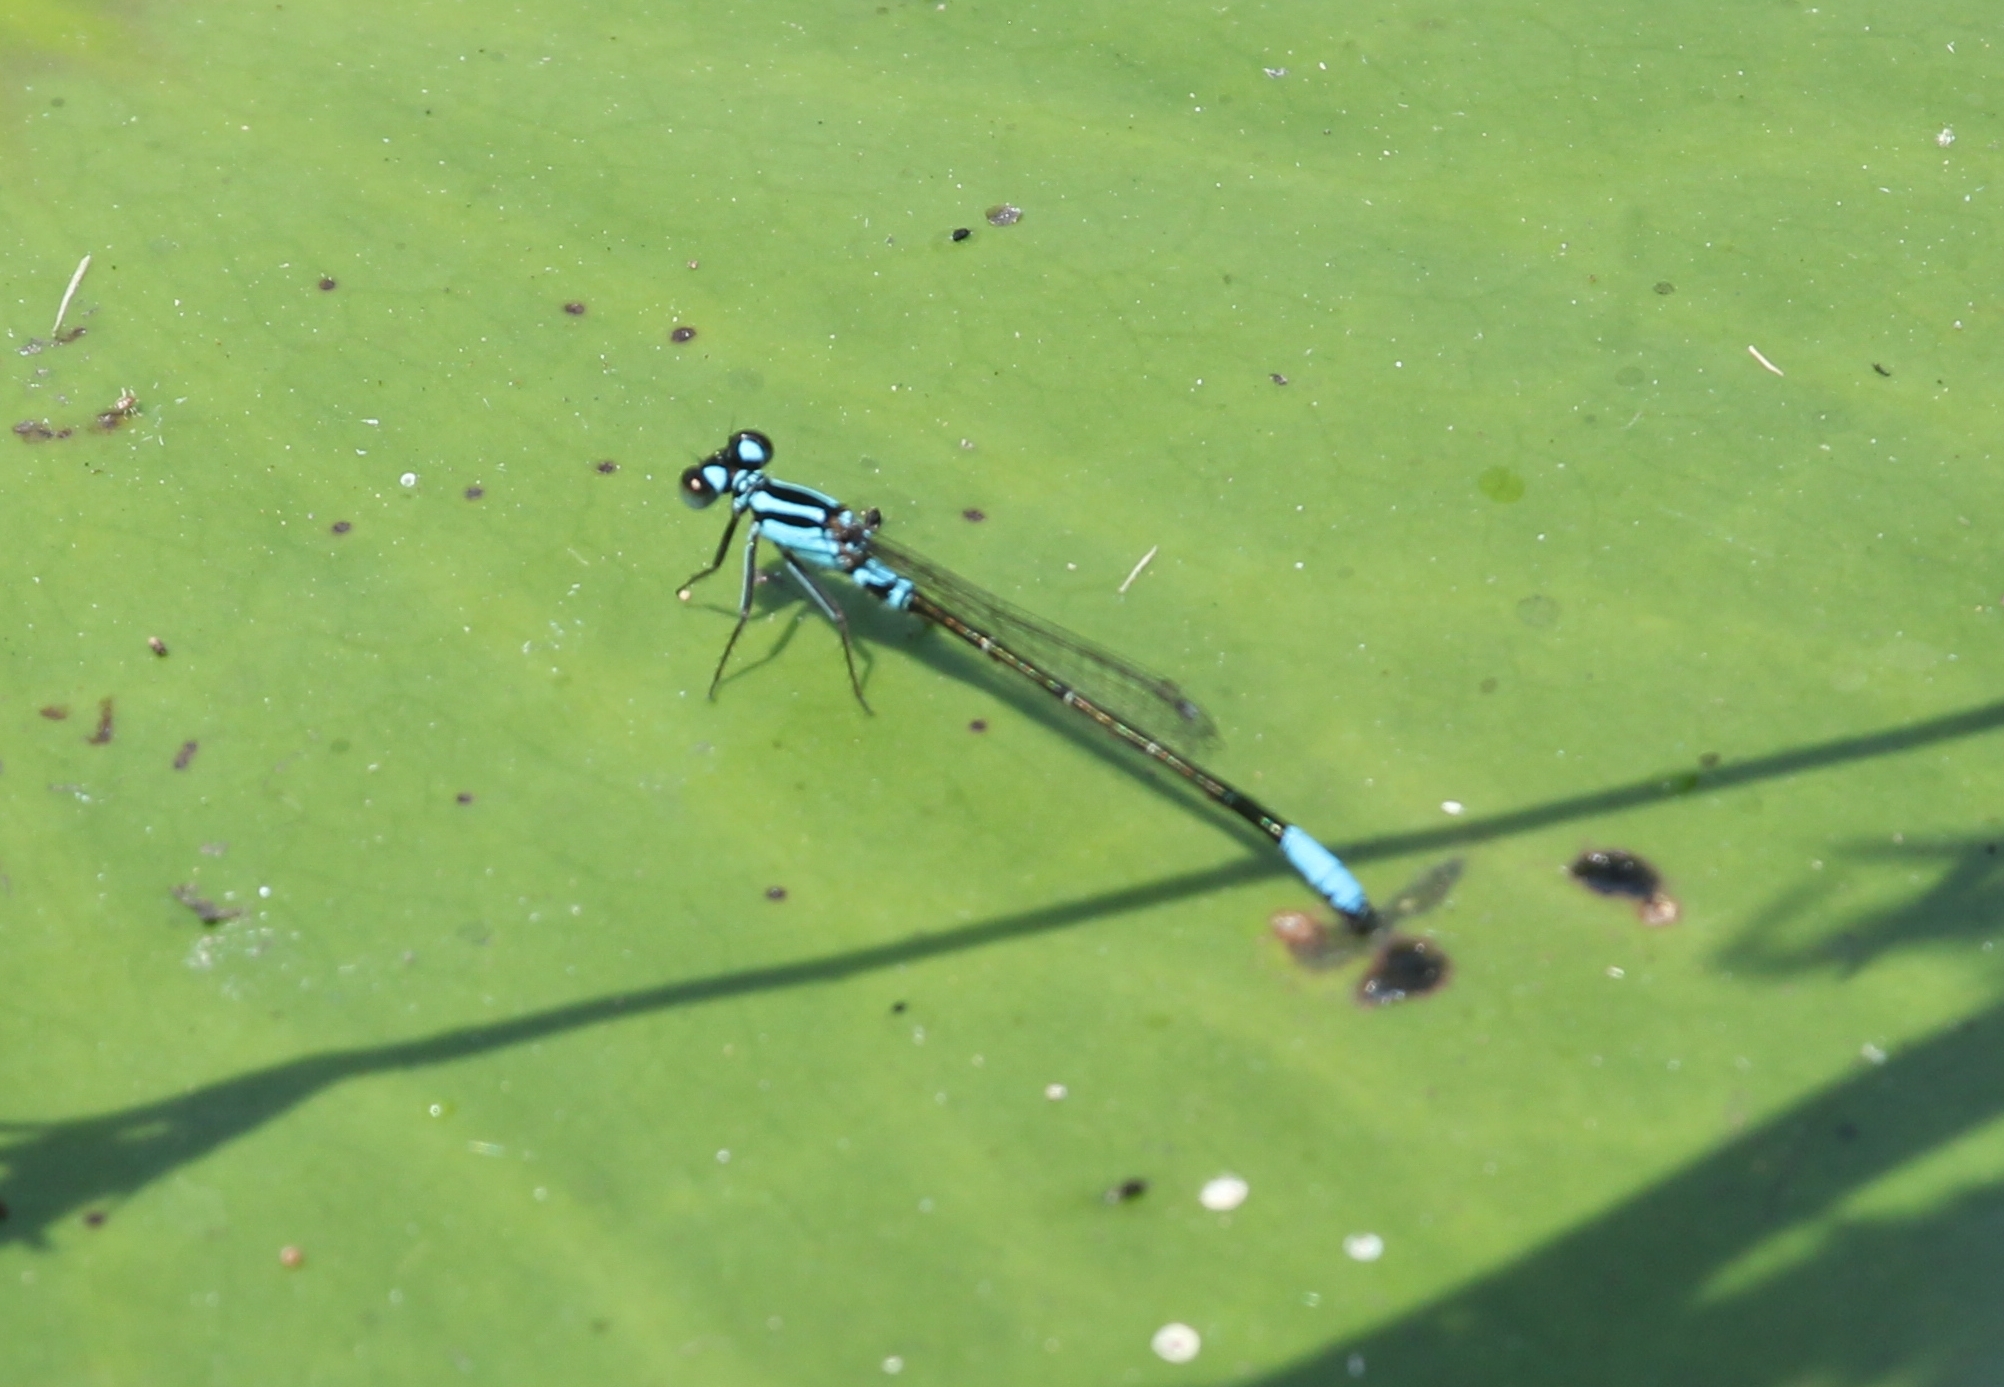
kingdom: Animalia
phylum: Arthropoda
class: Insecta
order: Odonata
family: Coenagrionidae
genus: Ischnura
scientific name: Ischnura kellicotti
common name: Lilypad forktail
